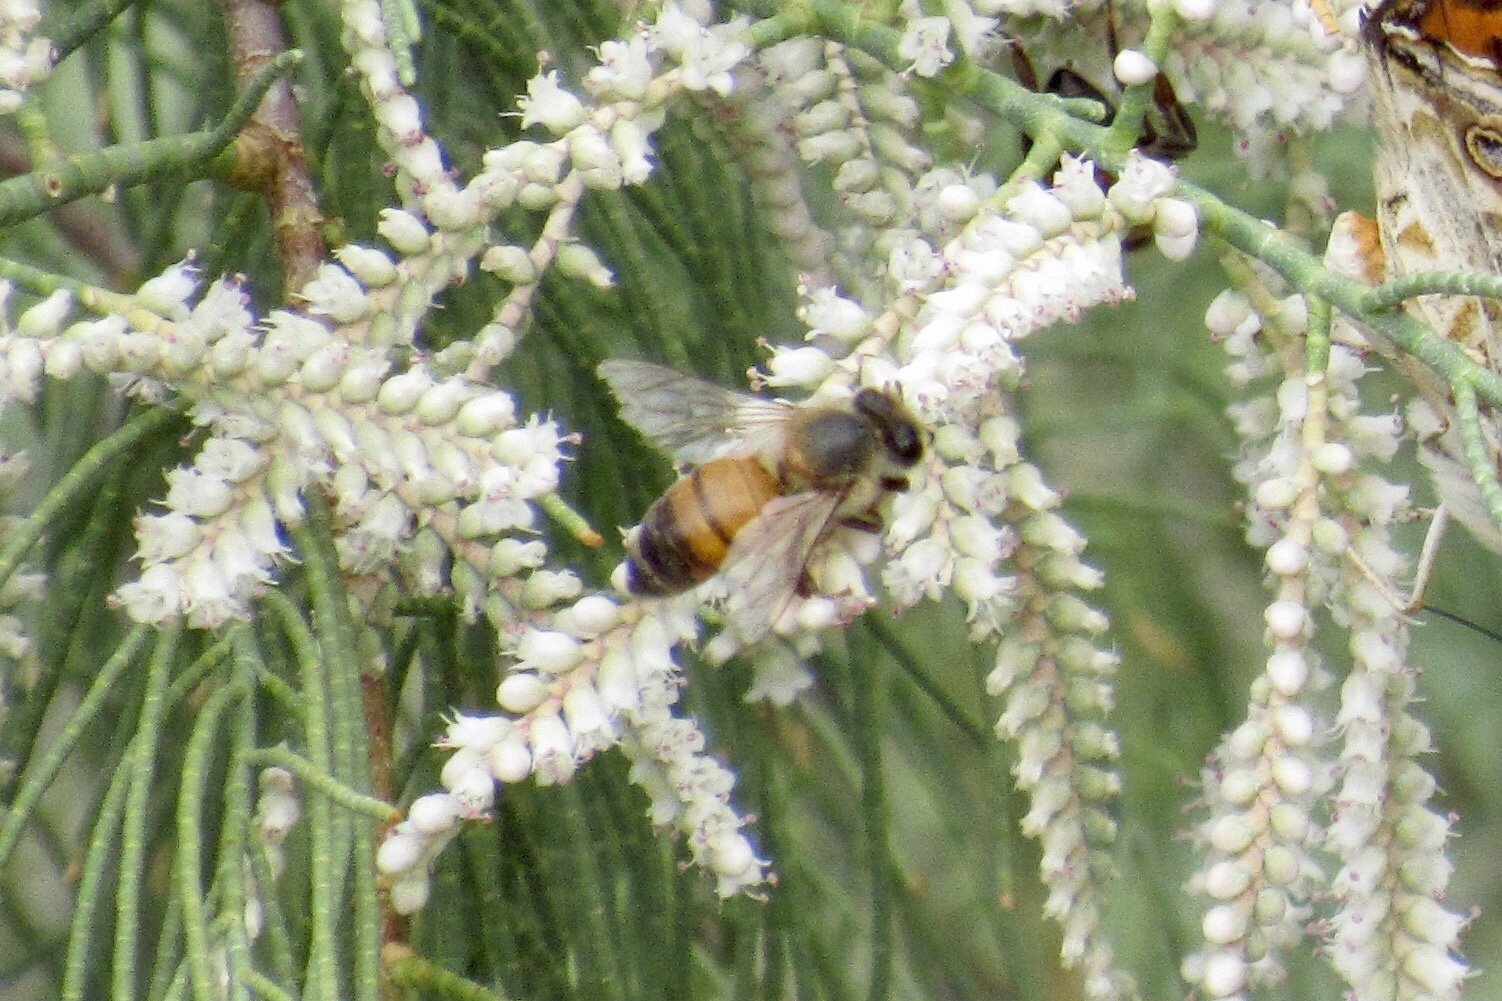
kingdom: Animalia
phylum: Arthropoda
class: Insecta
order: Hymenoptera
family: Apidae
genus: Apis
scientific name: Apis mellifera
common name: Honey bee
